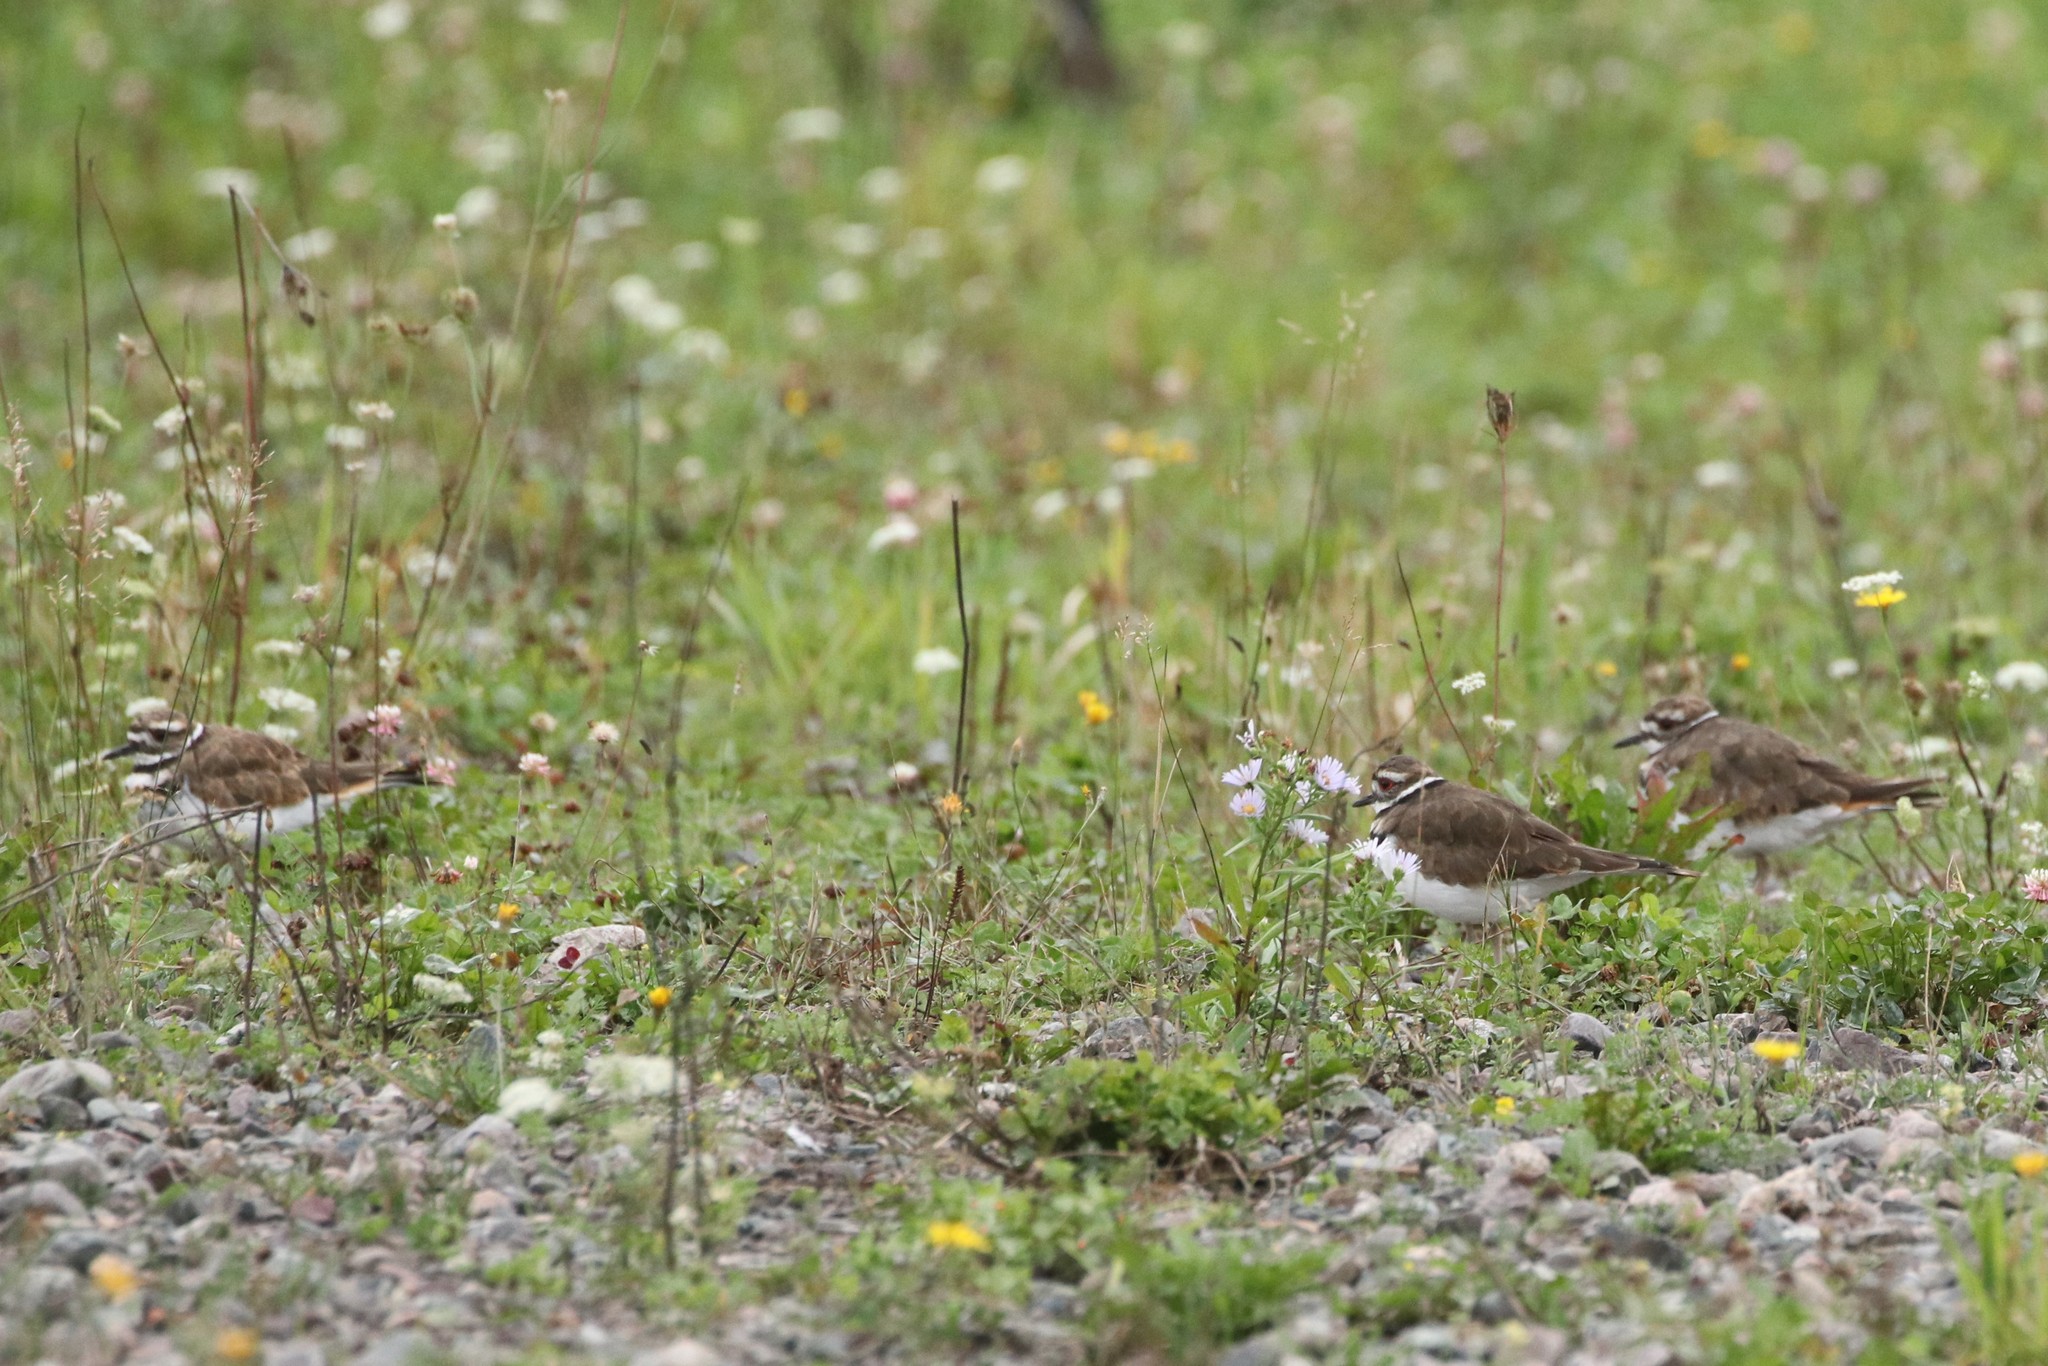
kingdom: Animalia
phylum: Chordata
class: Aves
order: Charadriiformes
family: Charadriidae
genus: Charadrius
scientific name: Charadrius vociferus
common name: Killdeer
